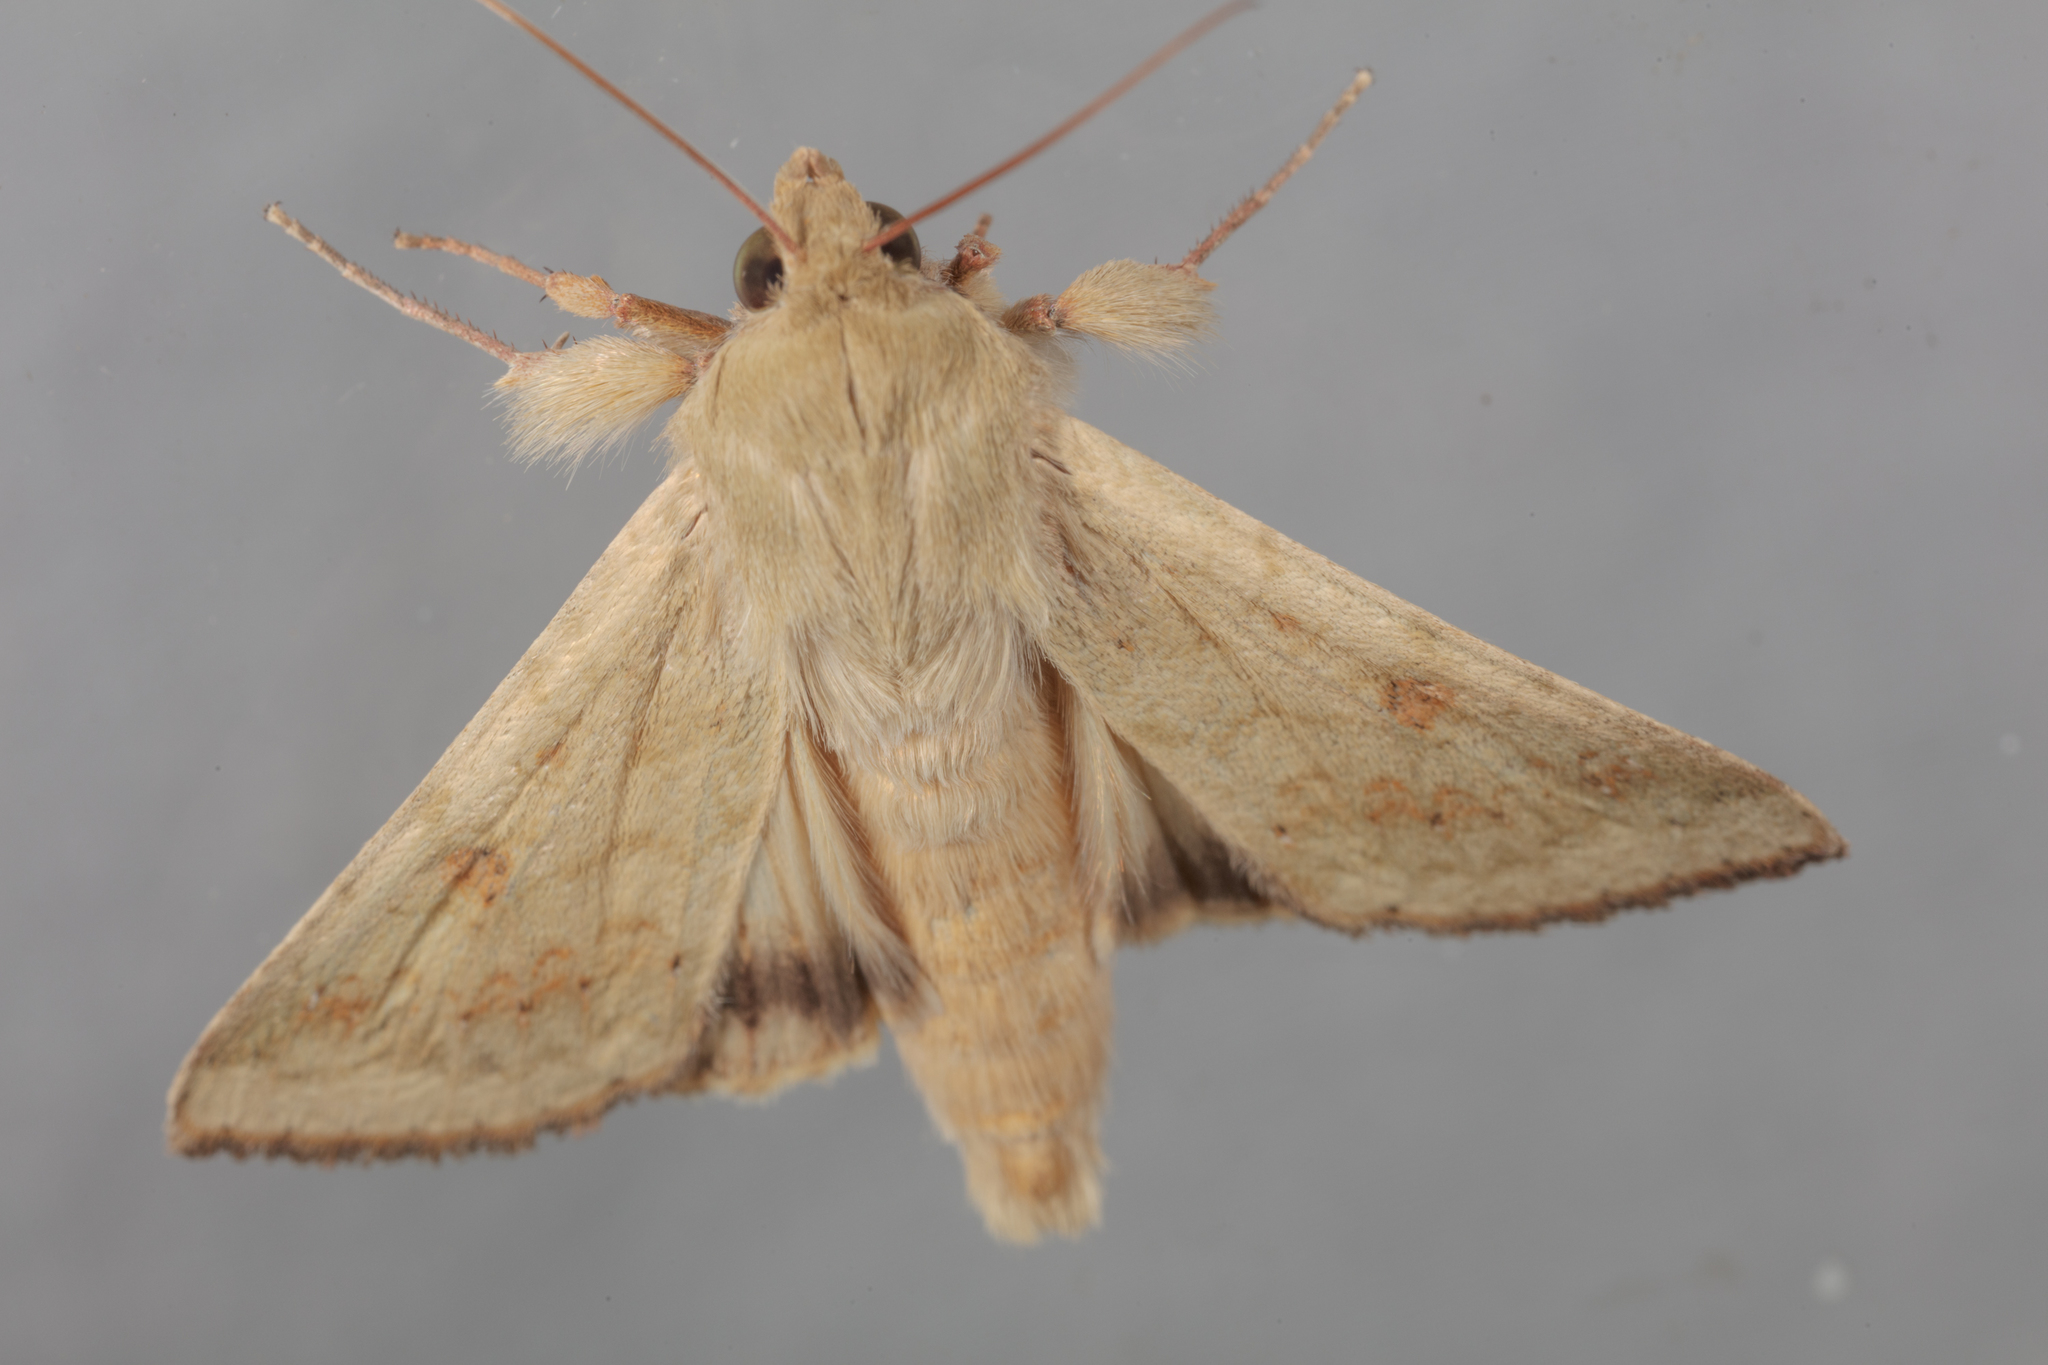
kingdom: Animalia
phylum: Arthropoda
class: Insecta
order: Lepidoptera
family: Noctuidae
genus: Helicoverpa
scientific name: Helicoverpa zea
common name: Bollworm
